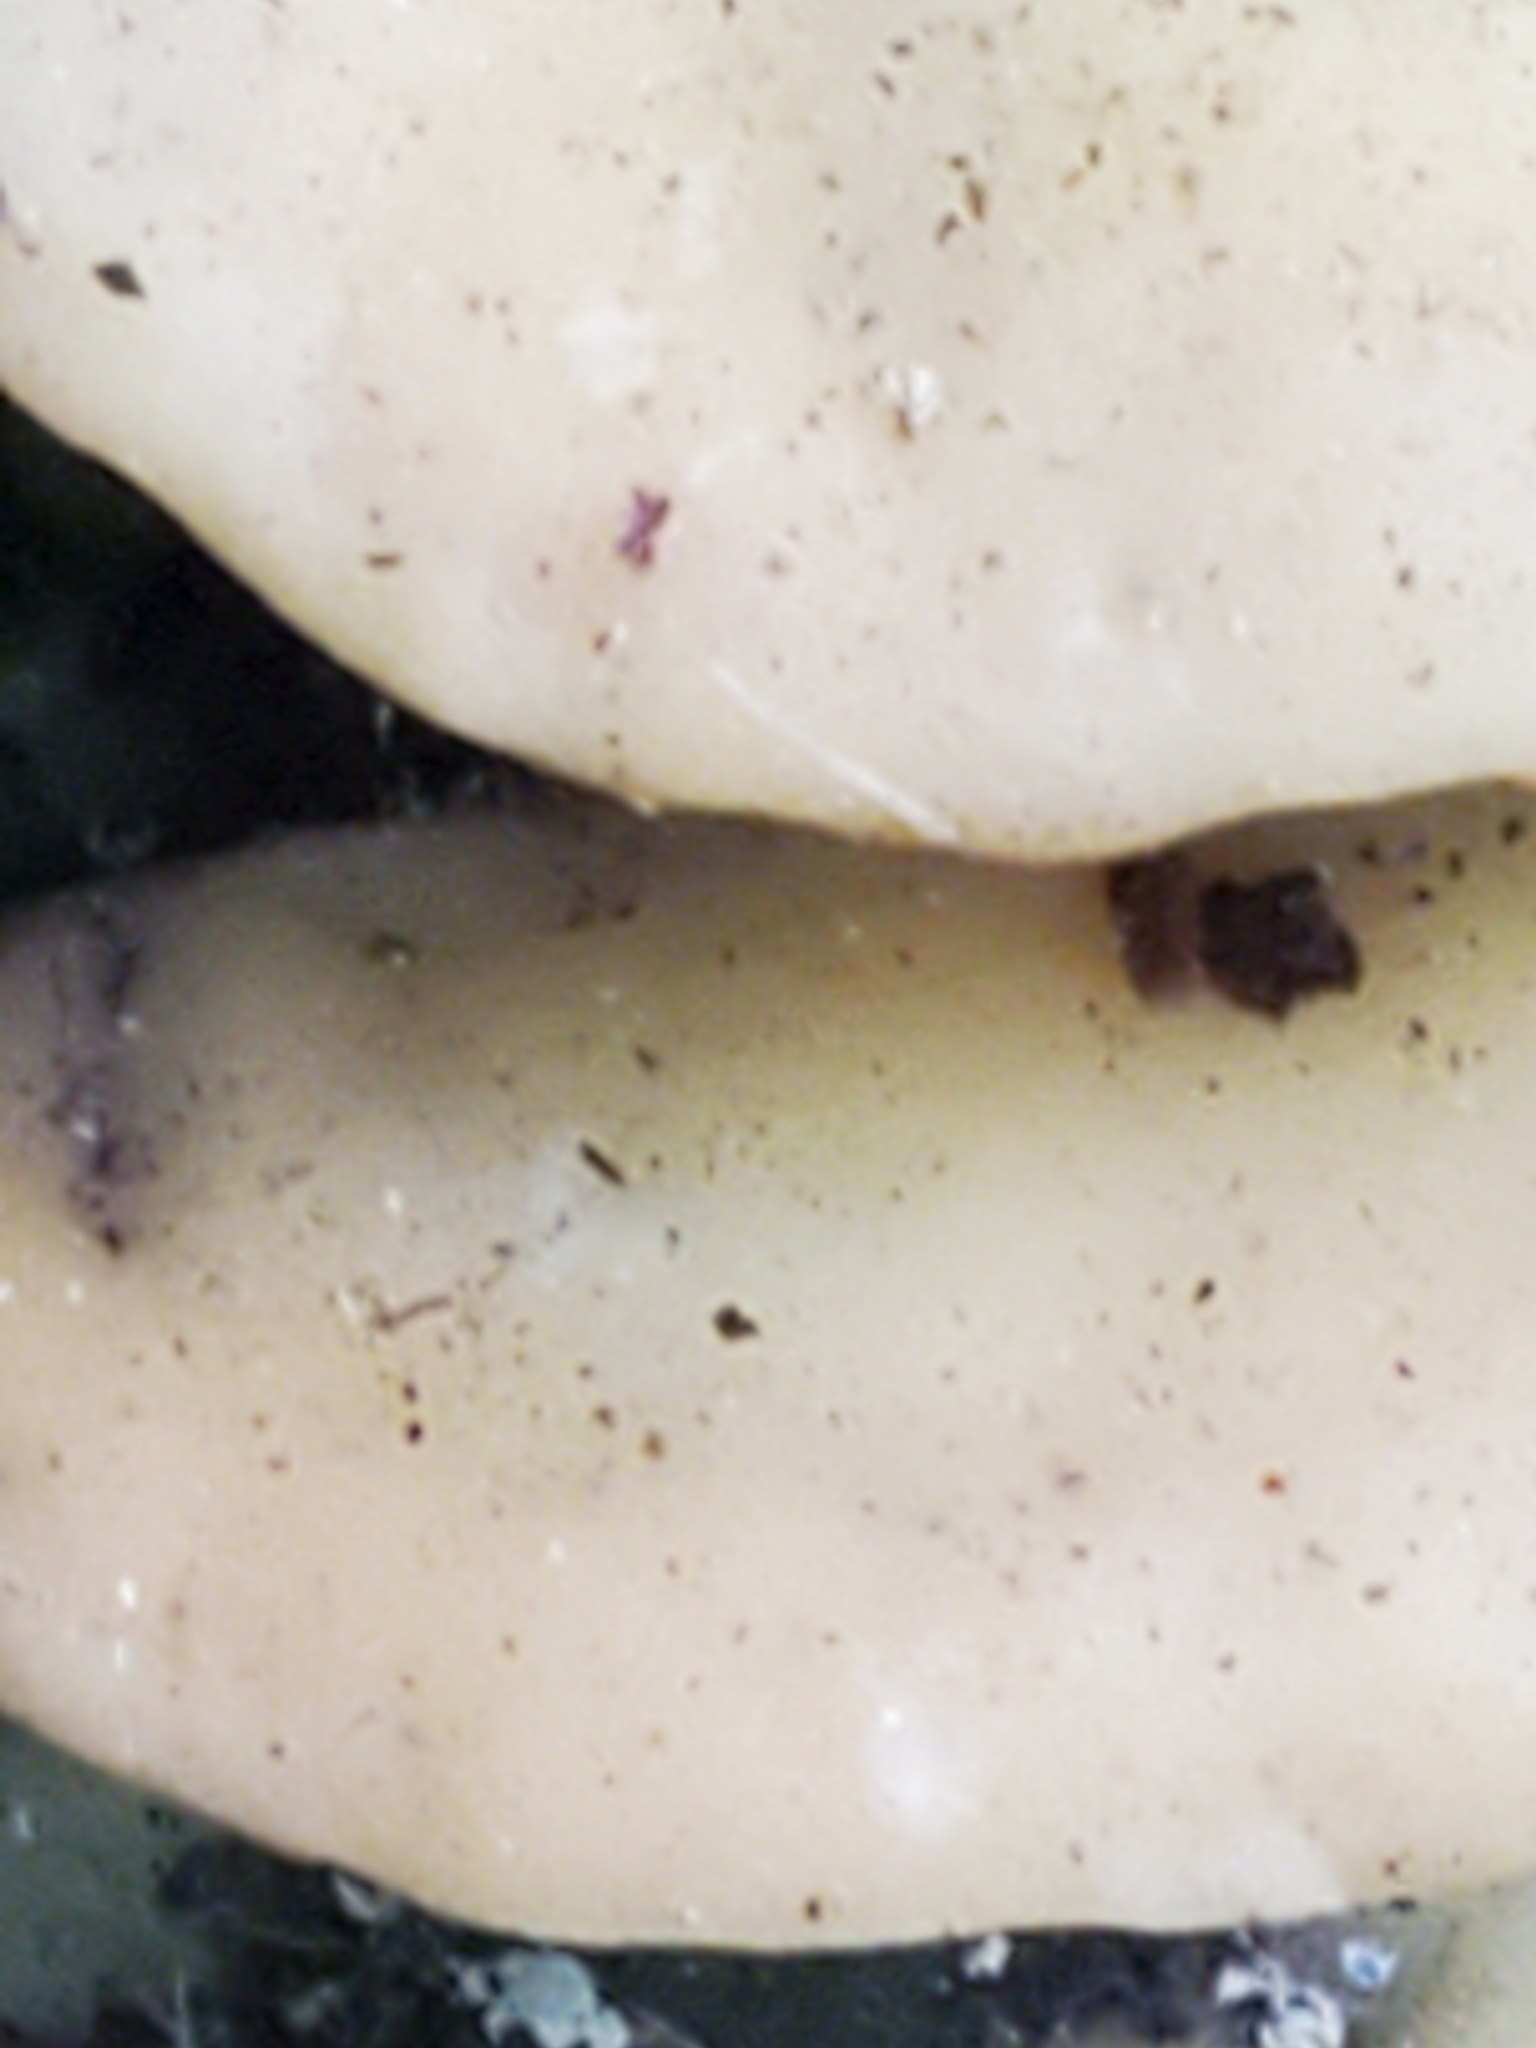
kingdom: Fungi
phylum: Basidiomycota
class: Agaricomycetes
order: Hymenochaetales
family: Oxyporaceae
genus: Oxyporus
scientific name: Oxyporus populinus
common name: Poplar bracket
